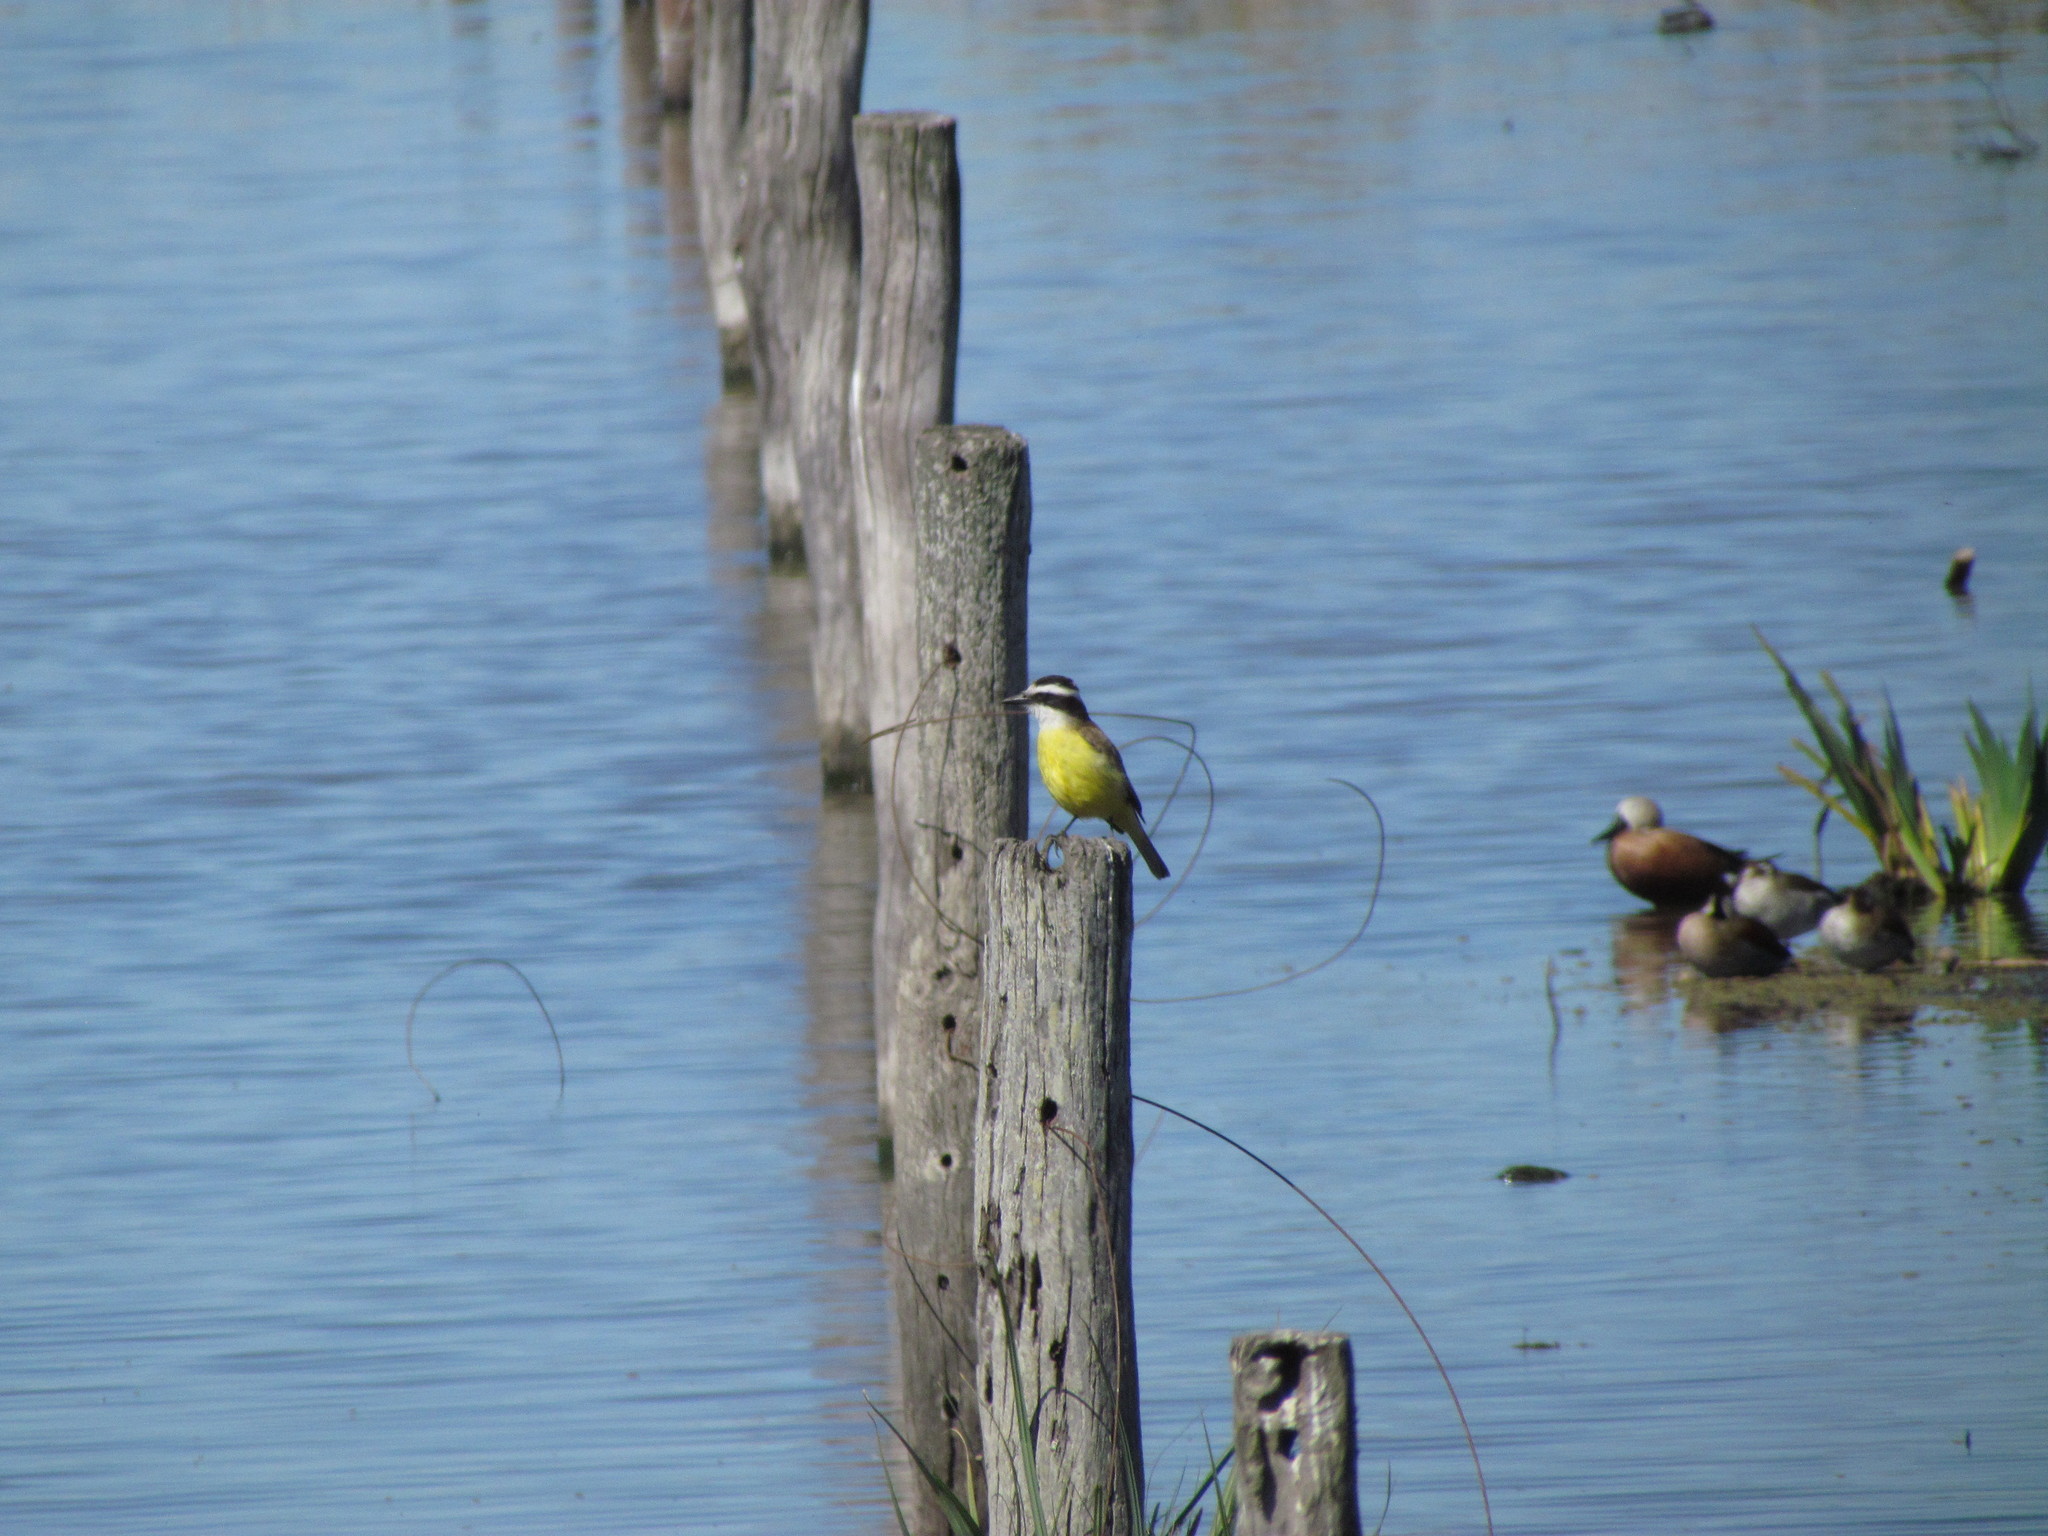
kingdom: Animalia
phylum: Chordata
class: Aves
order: Passeriformes
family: Tyrannidae
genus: Pitangus
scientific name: Pitangus sulphuratus
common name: Great kiskadee
